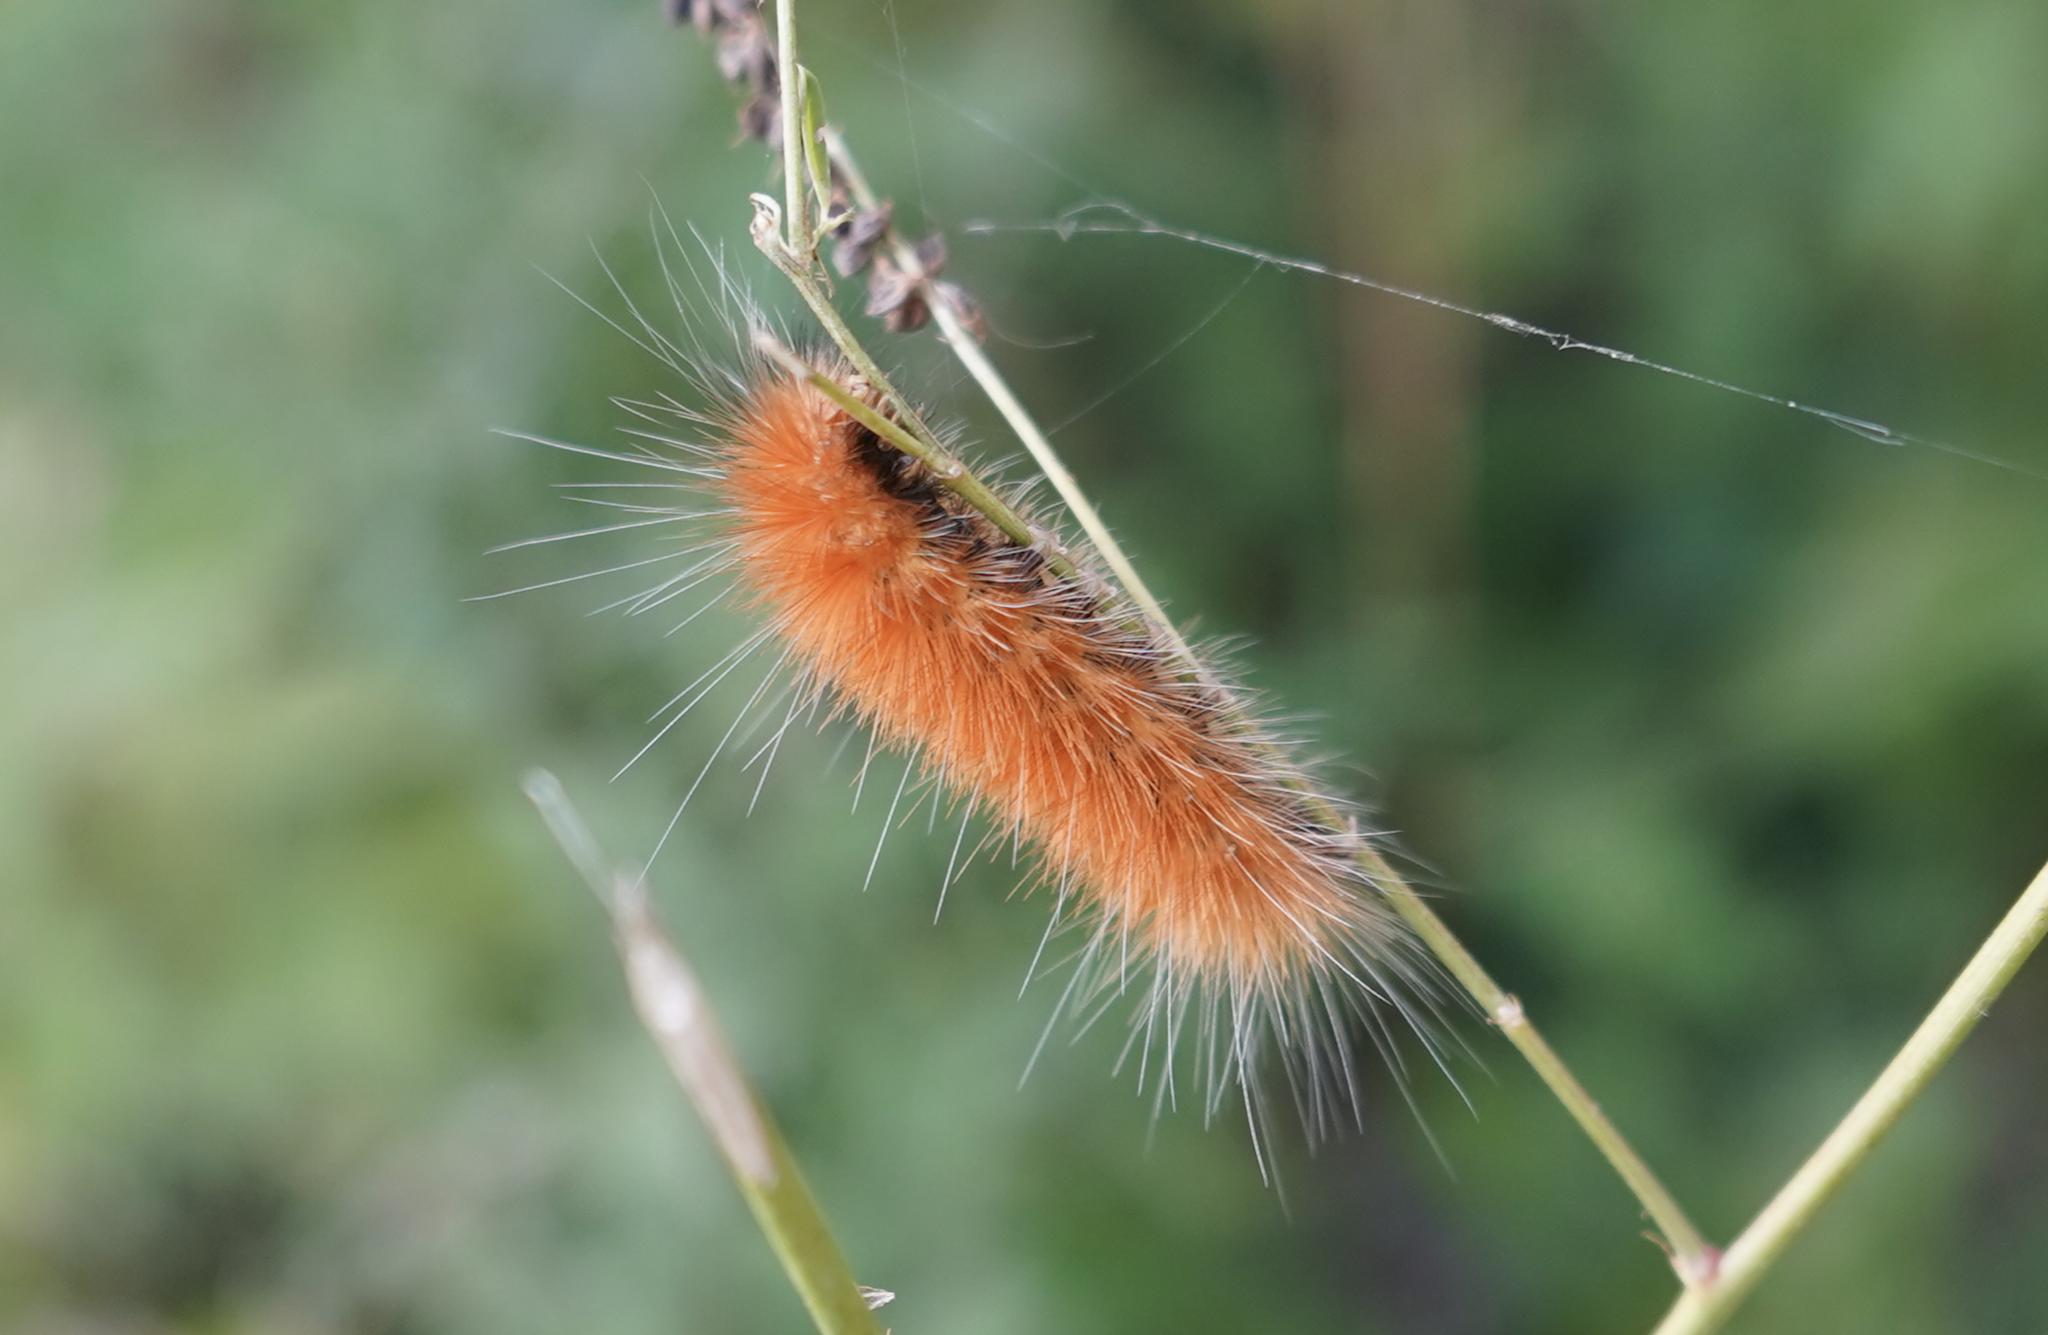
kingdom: Animalia
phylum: Arthropoda
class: Insecta
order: Lepidoptera
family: Erebidae
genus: Spilosoma
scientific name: Spilosoma virginica
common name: Virginia tiger moth
